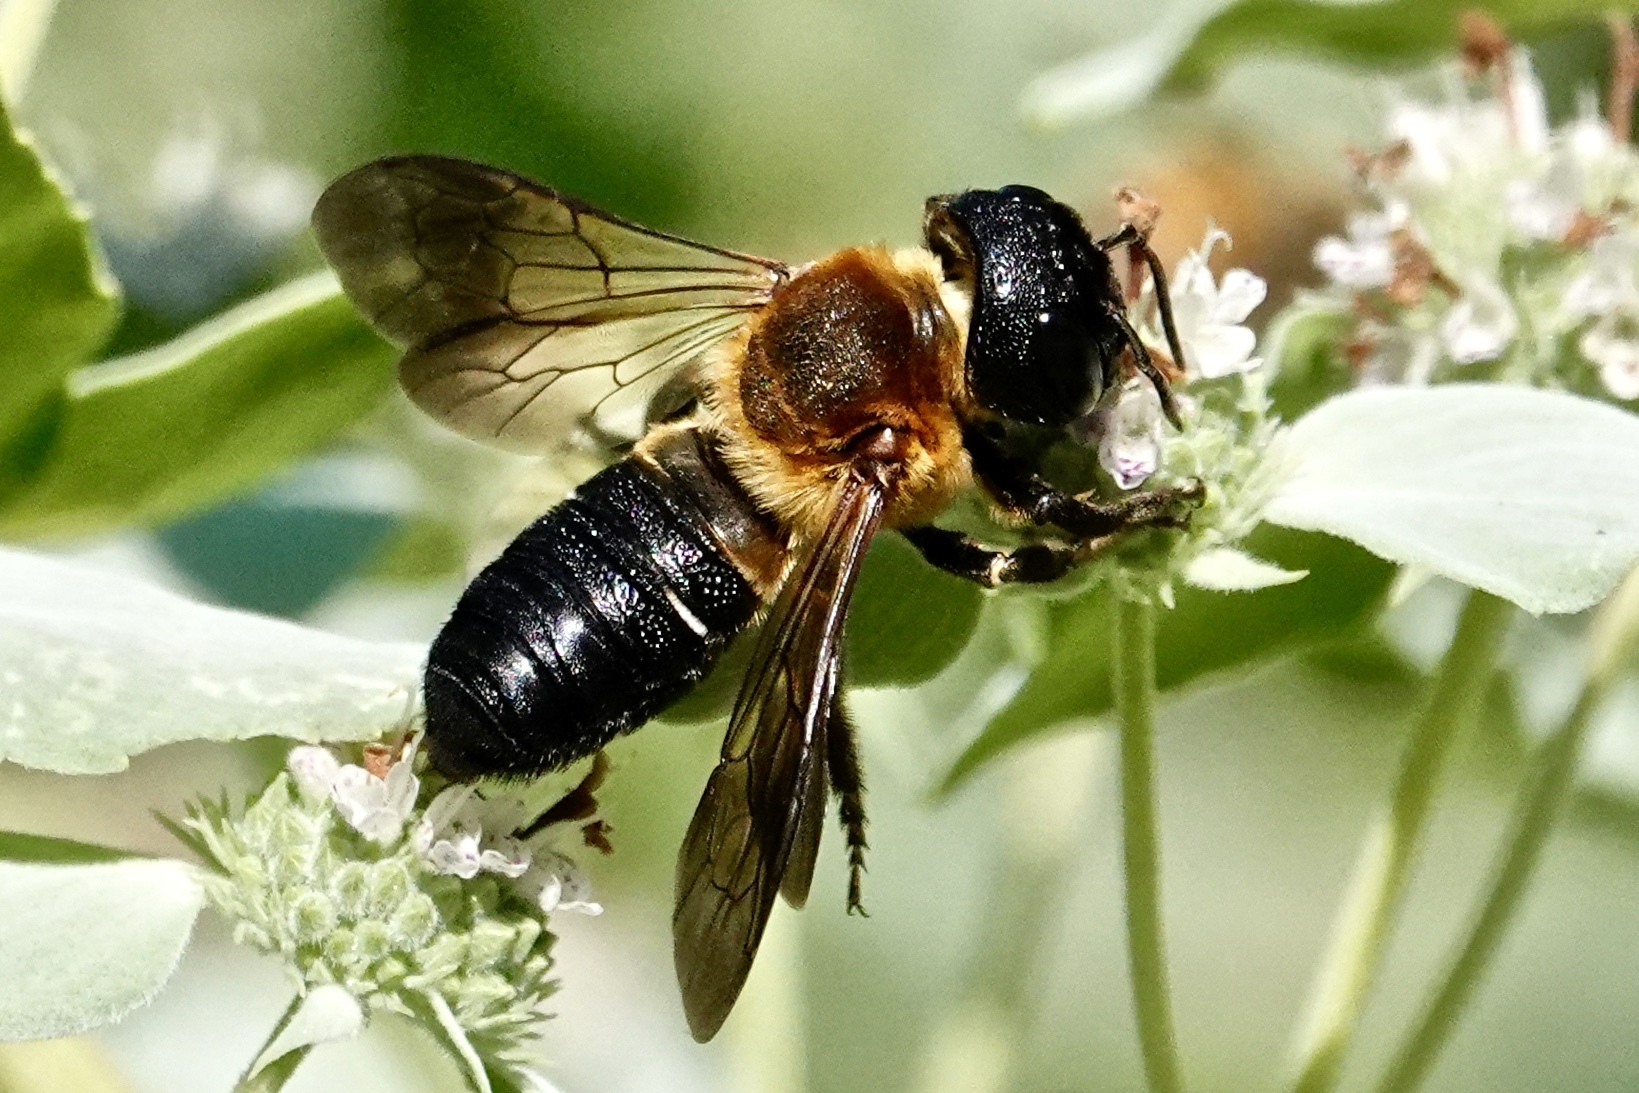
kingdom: Animalia
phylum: Arthropoda
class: Insecta
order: Hymenoptera
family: Megachilidae
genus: Megachile
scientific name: Megachile sculpturalis
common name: Sculptured resin bee
